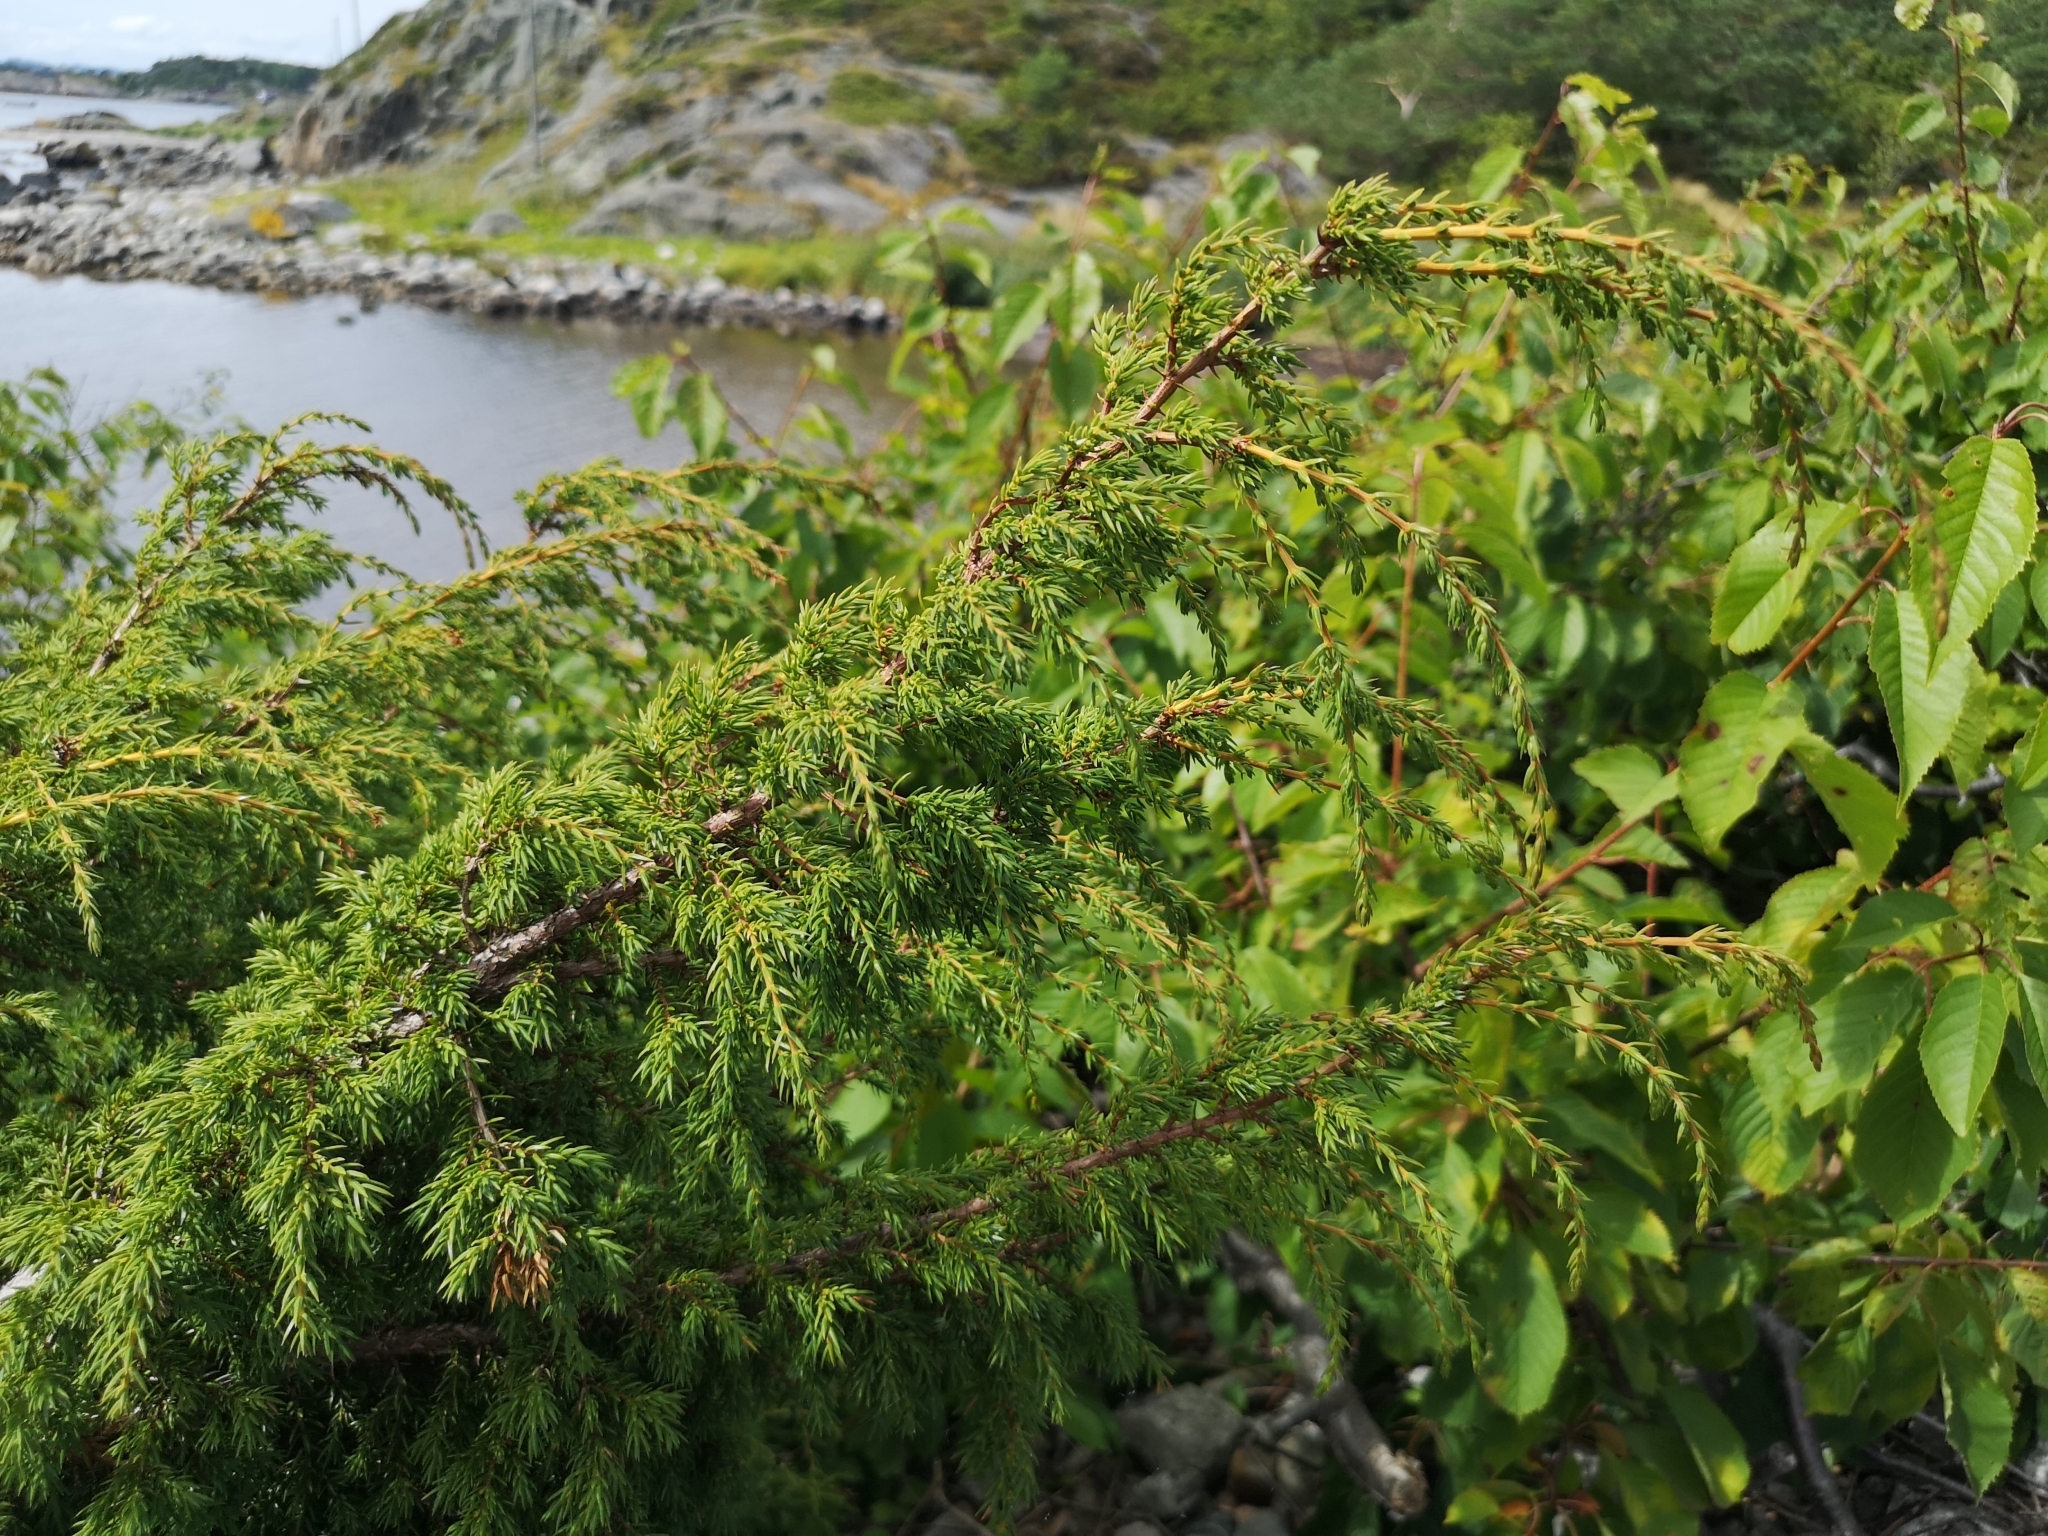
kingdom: Plantae
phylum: Tracheophyta
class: Pinopsida
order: Pinales
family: Cupressaceae
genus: Juniperus
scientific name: Juniperus communis
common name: Common juniper
